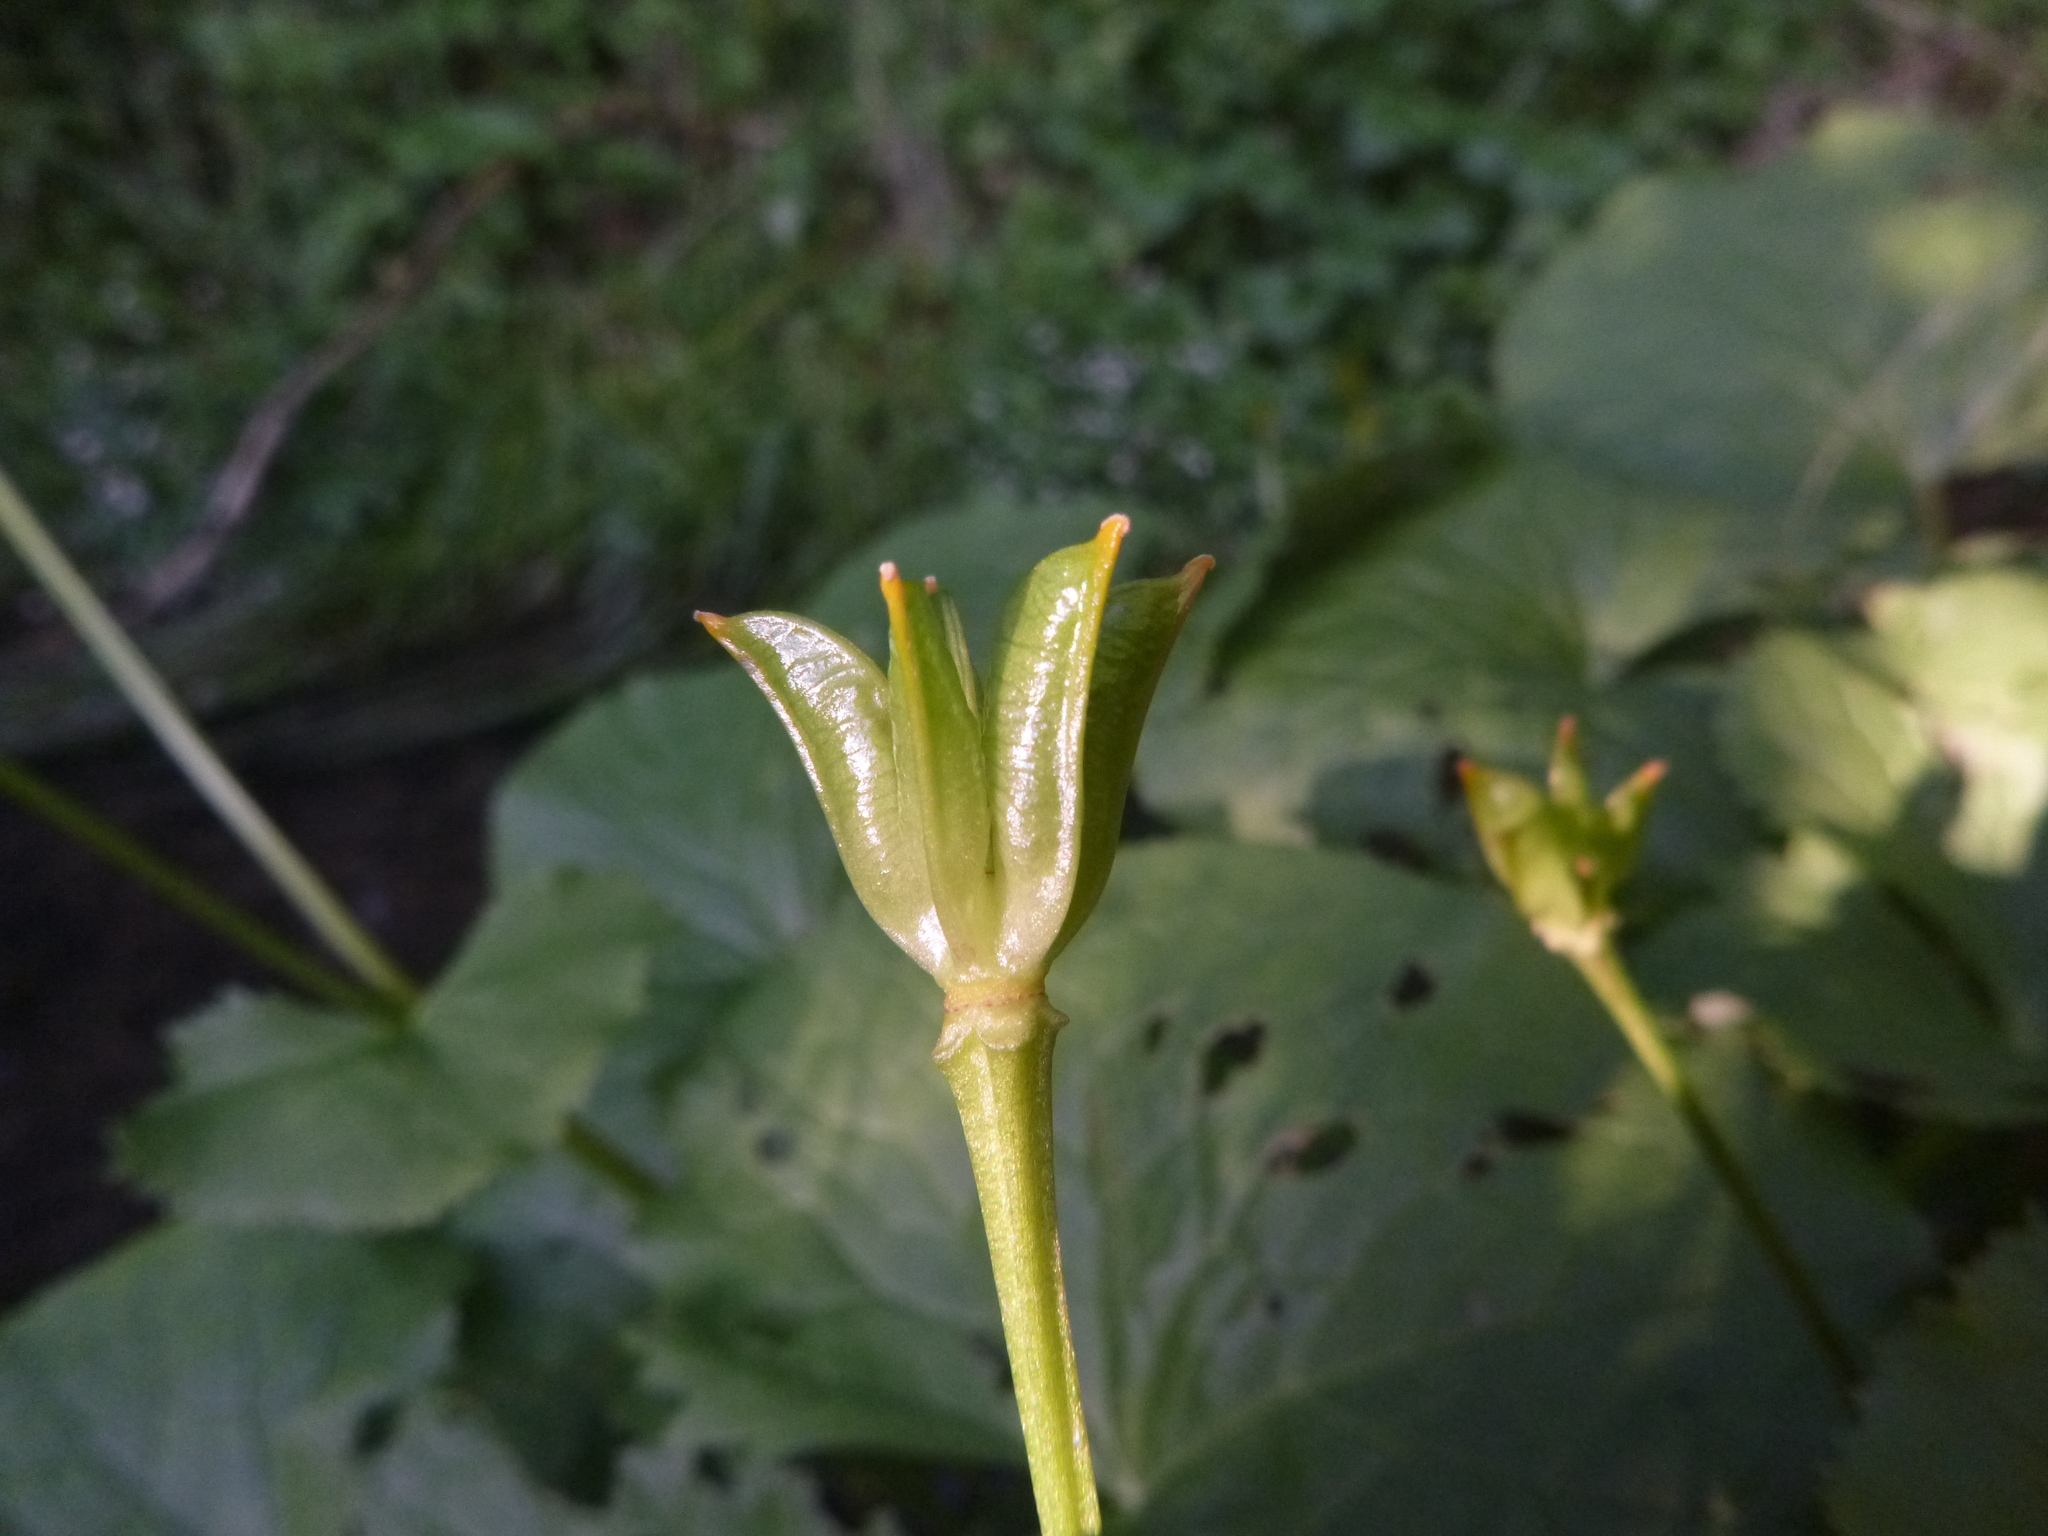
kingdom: Plantae
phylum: Tracheophyta
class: Magnoliopsida
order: Ranunculales
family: Ranunculaceae
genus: Caltha
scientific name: Caltha palustris
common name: Marsh marigold
